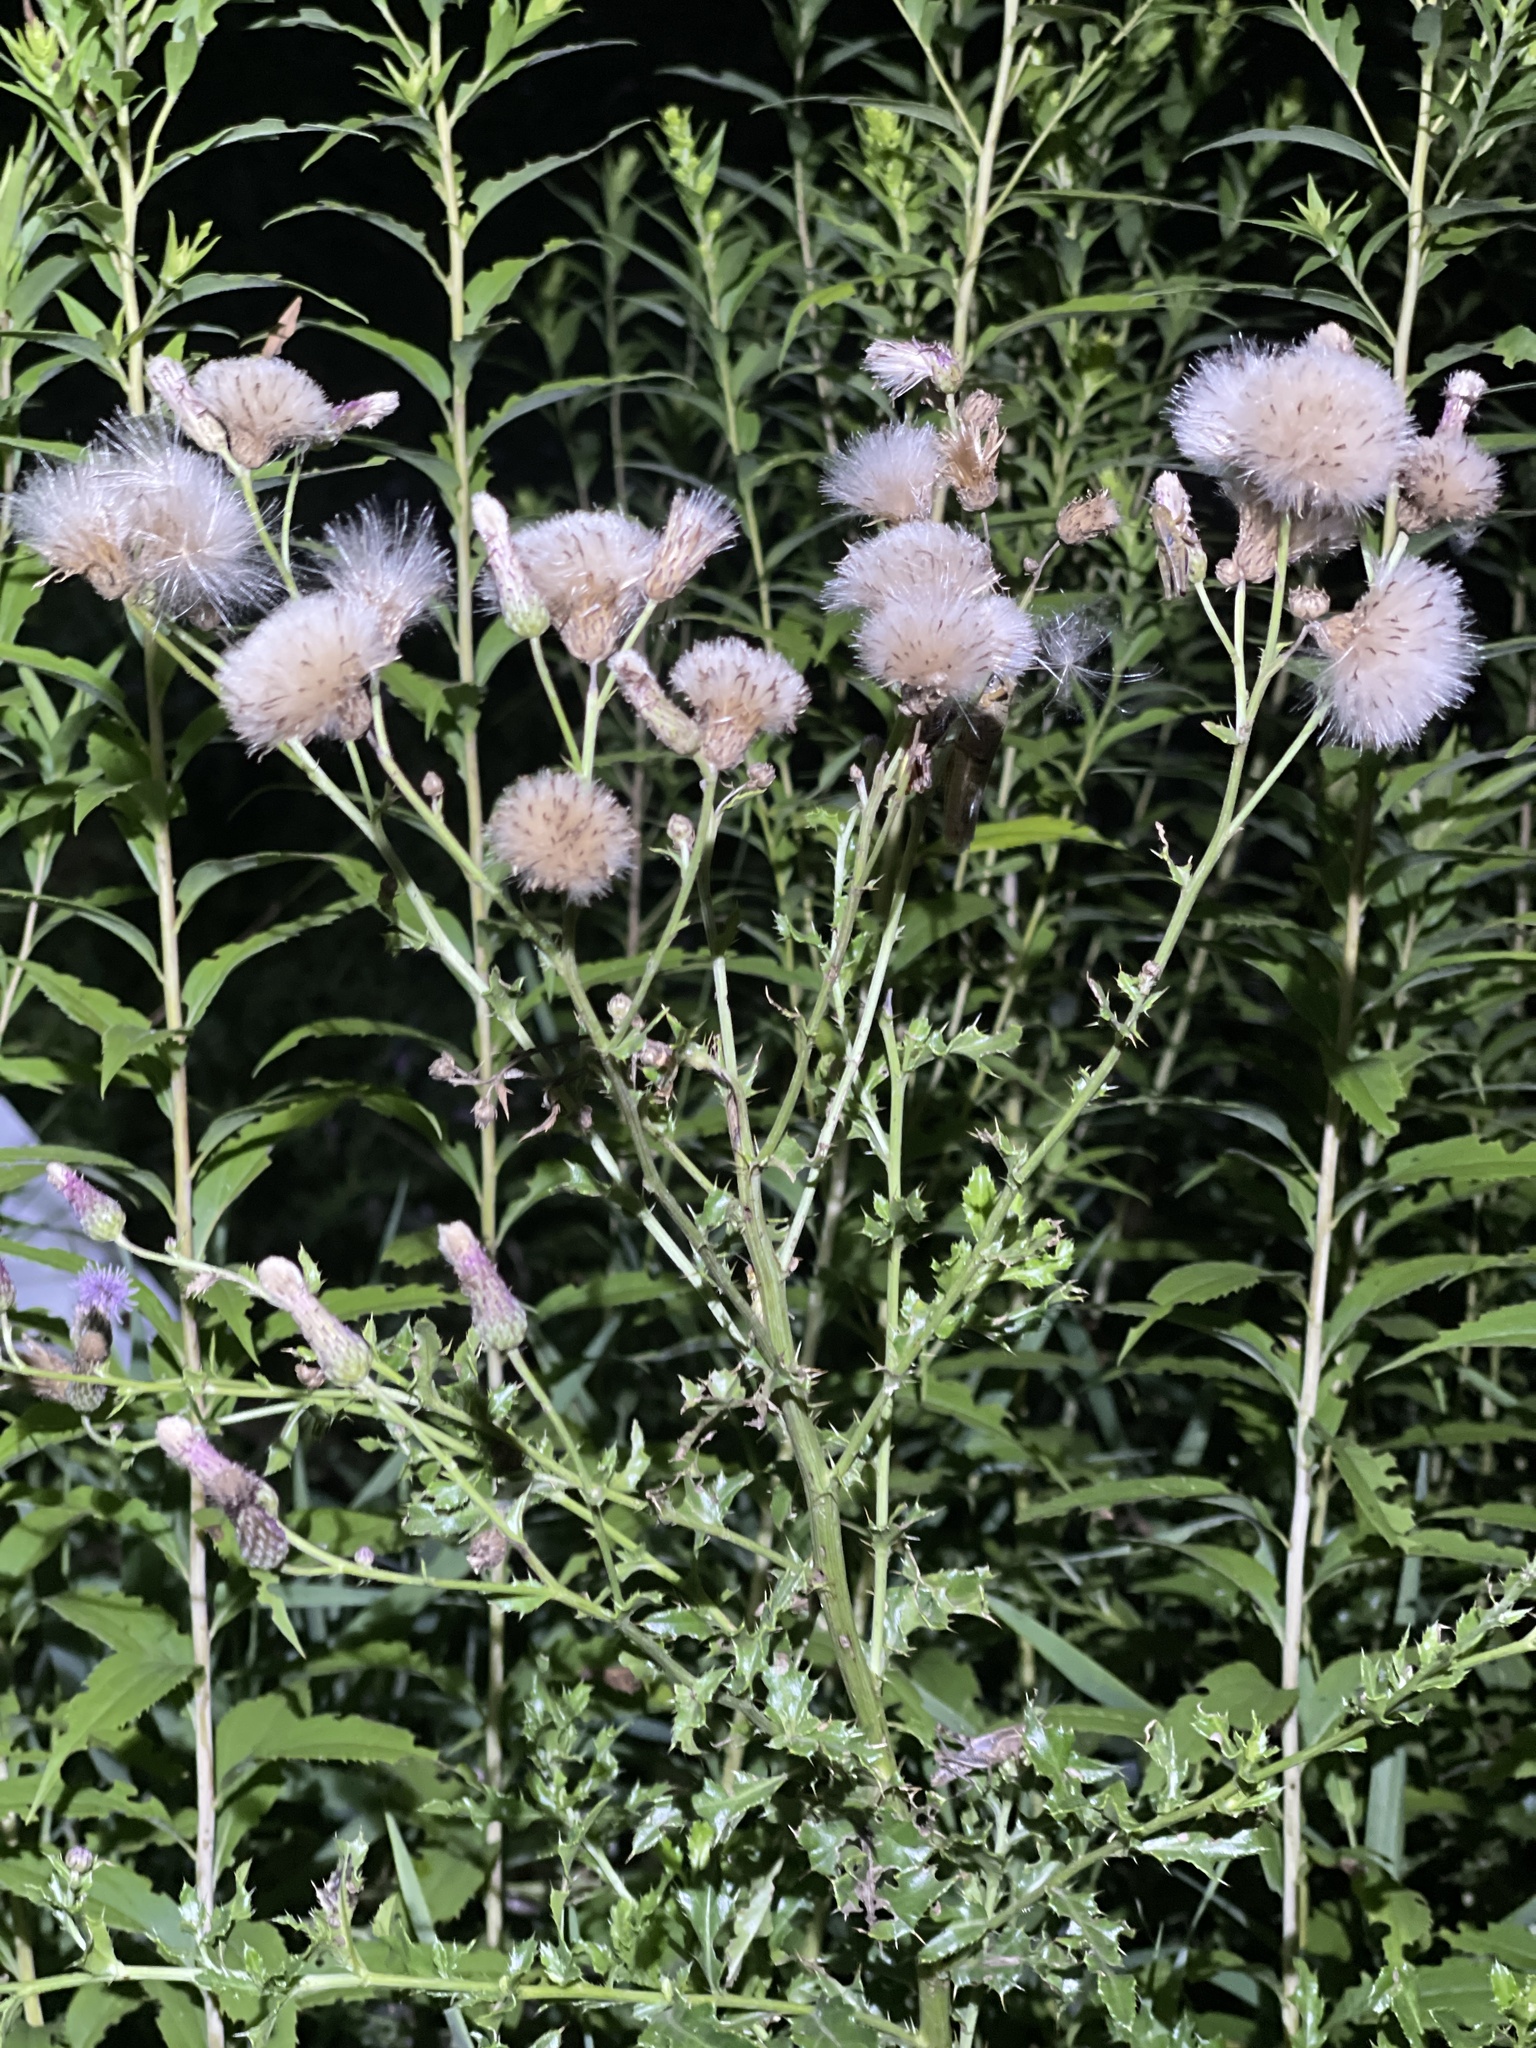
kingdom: Plantae
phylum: Tracheophyta
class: Magnoliopsida
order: Asterales
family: Asteraceae
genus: Cirsium
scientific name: Cirsium arvense
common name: Creeping thistle
